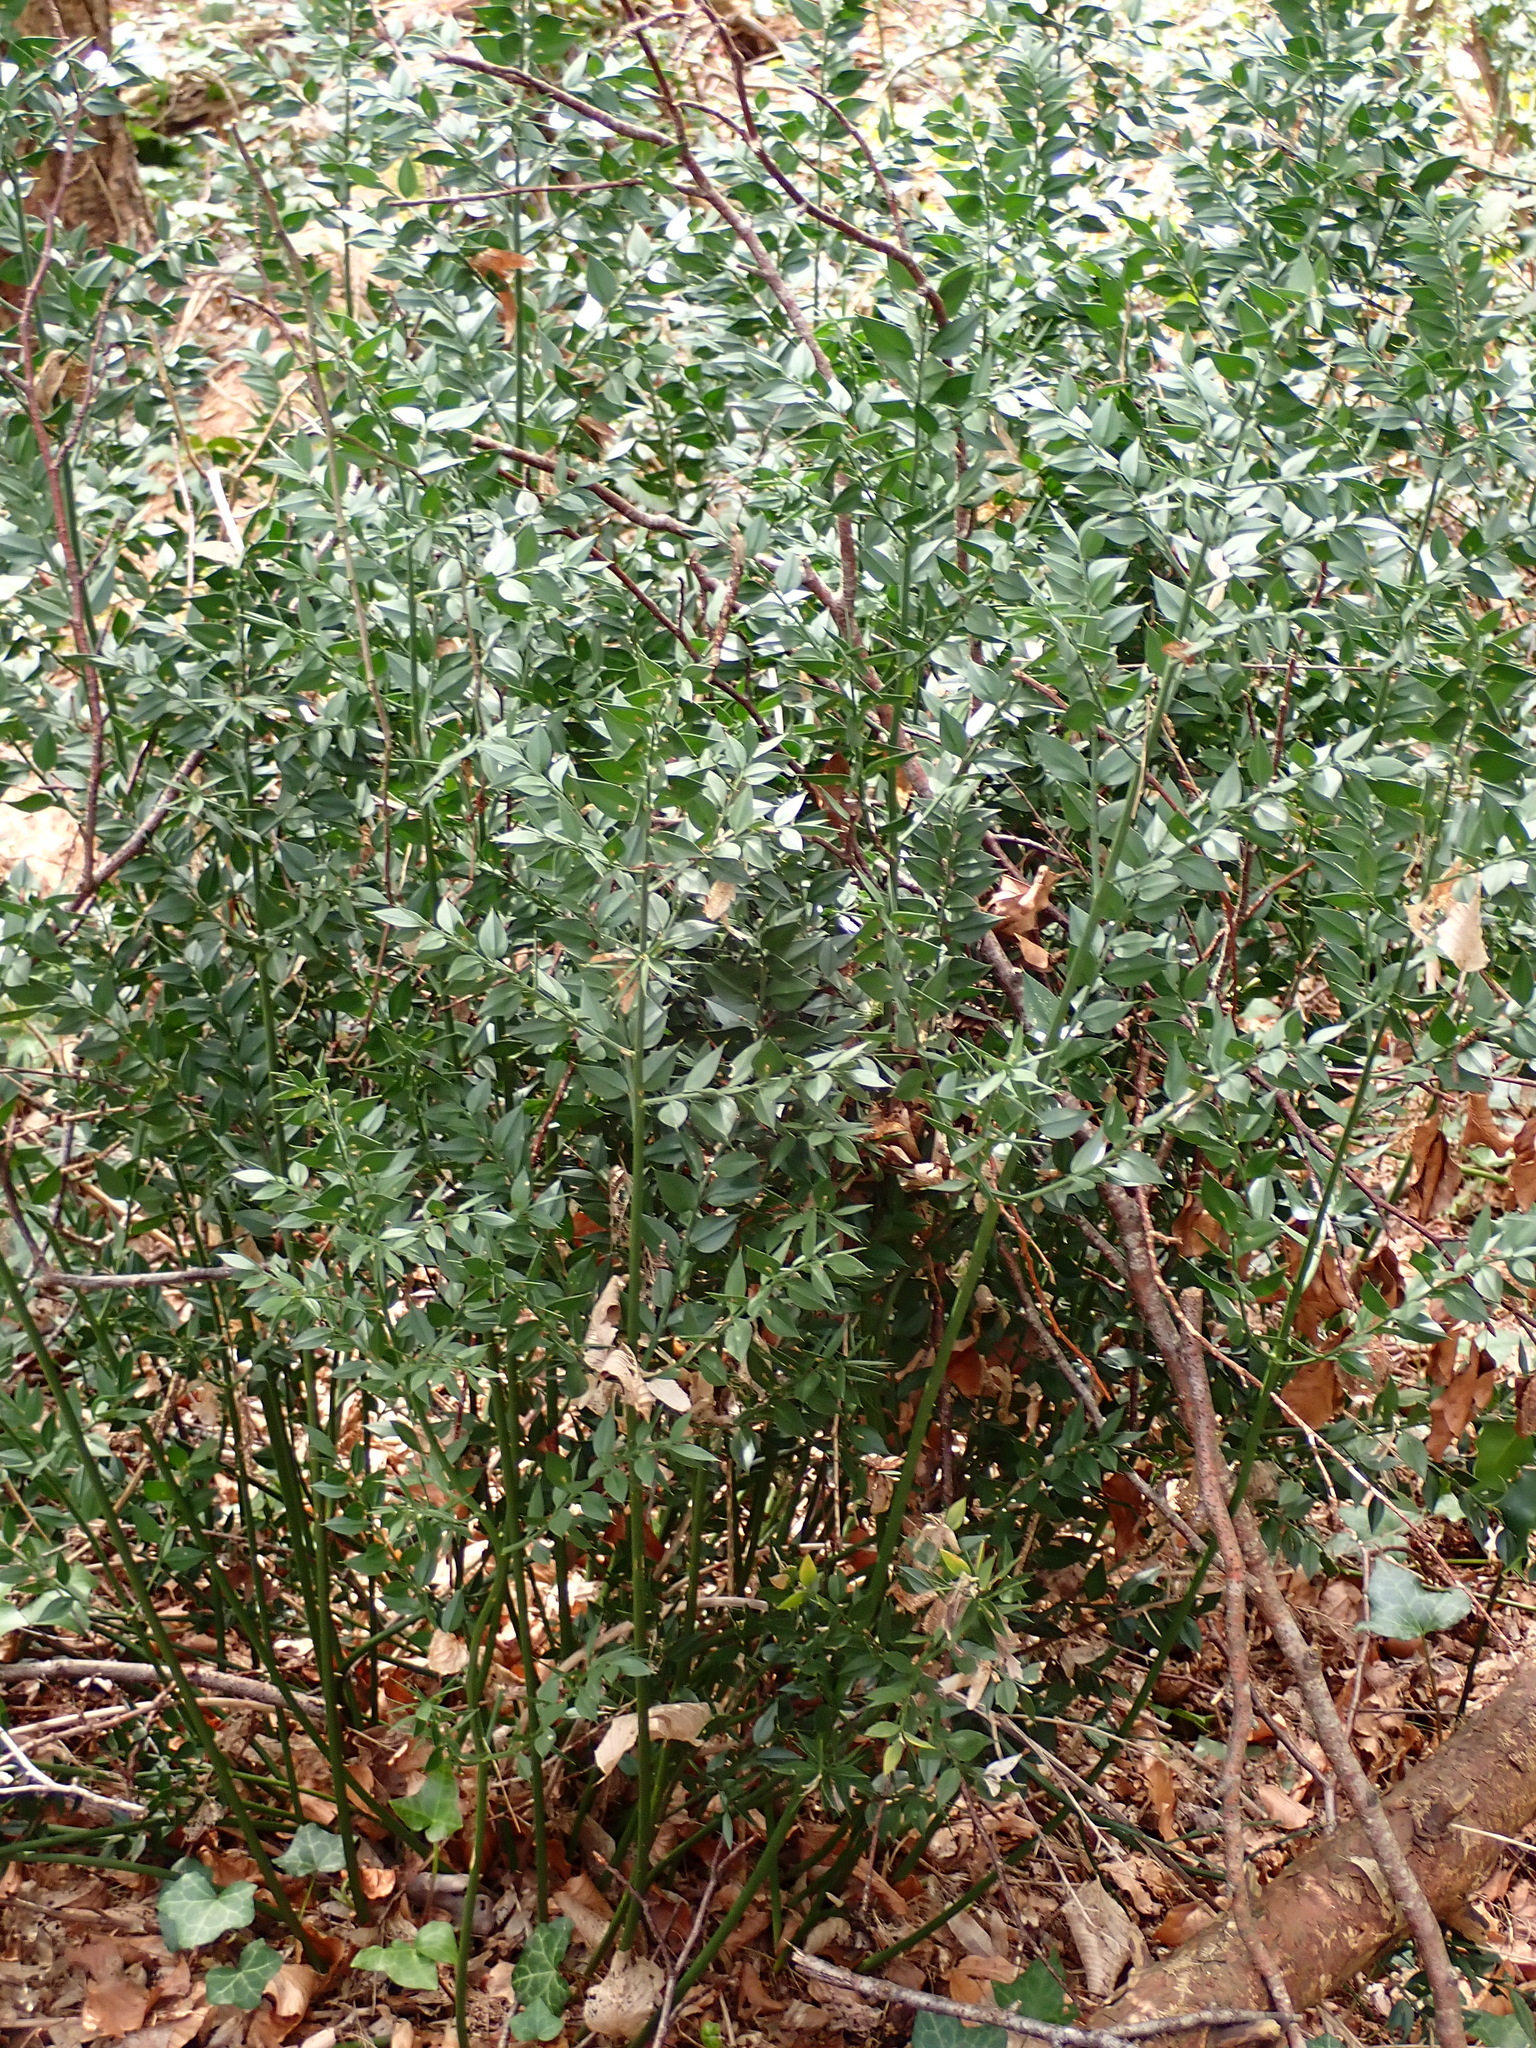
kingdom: Plantae
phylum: Tracheophyta
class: Liliopsida
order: Asparagales
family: Asparagaceae
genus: Ruscus
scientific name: Ruscus aculeatus
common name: Butcher's-broom
